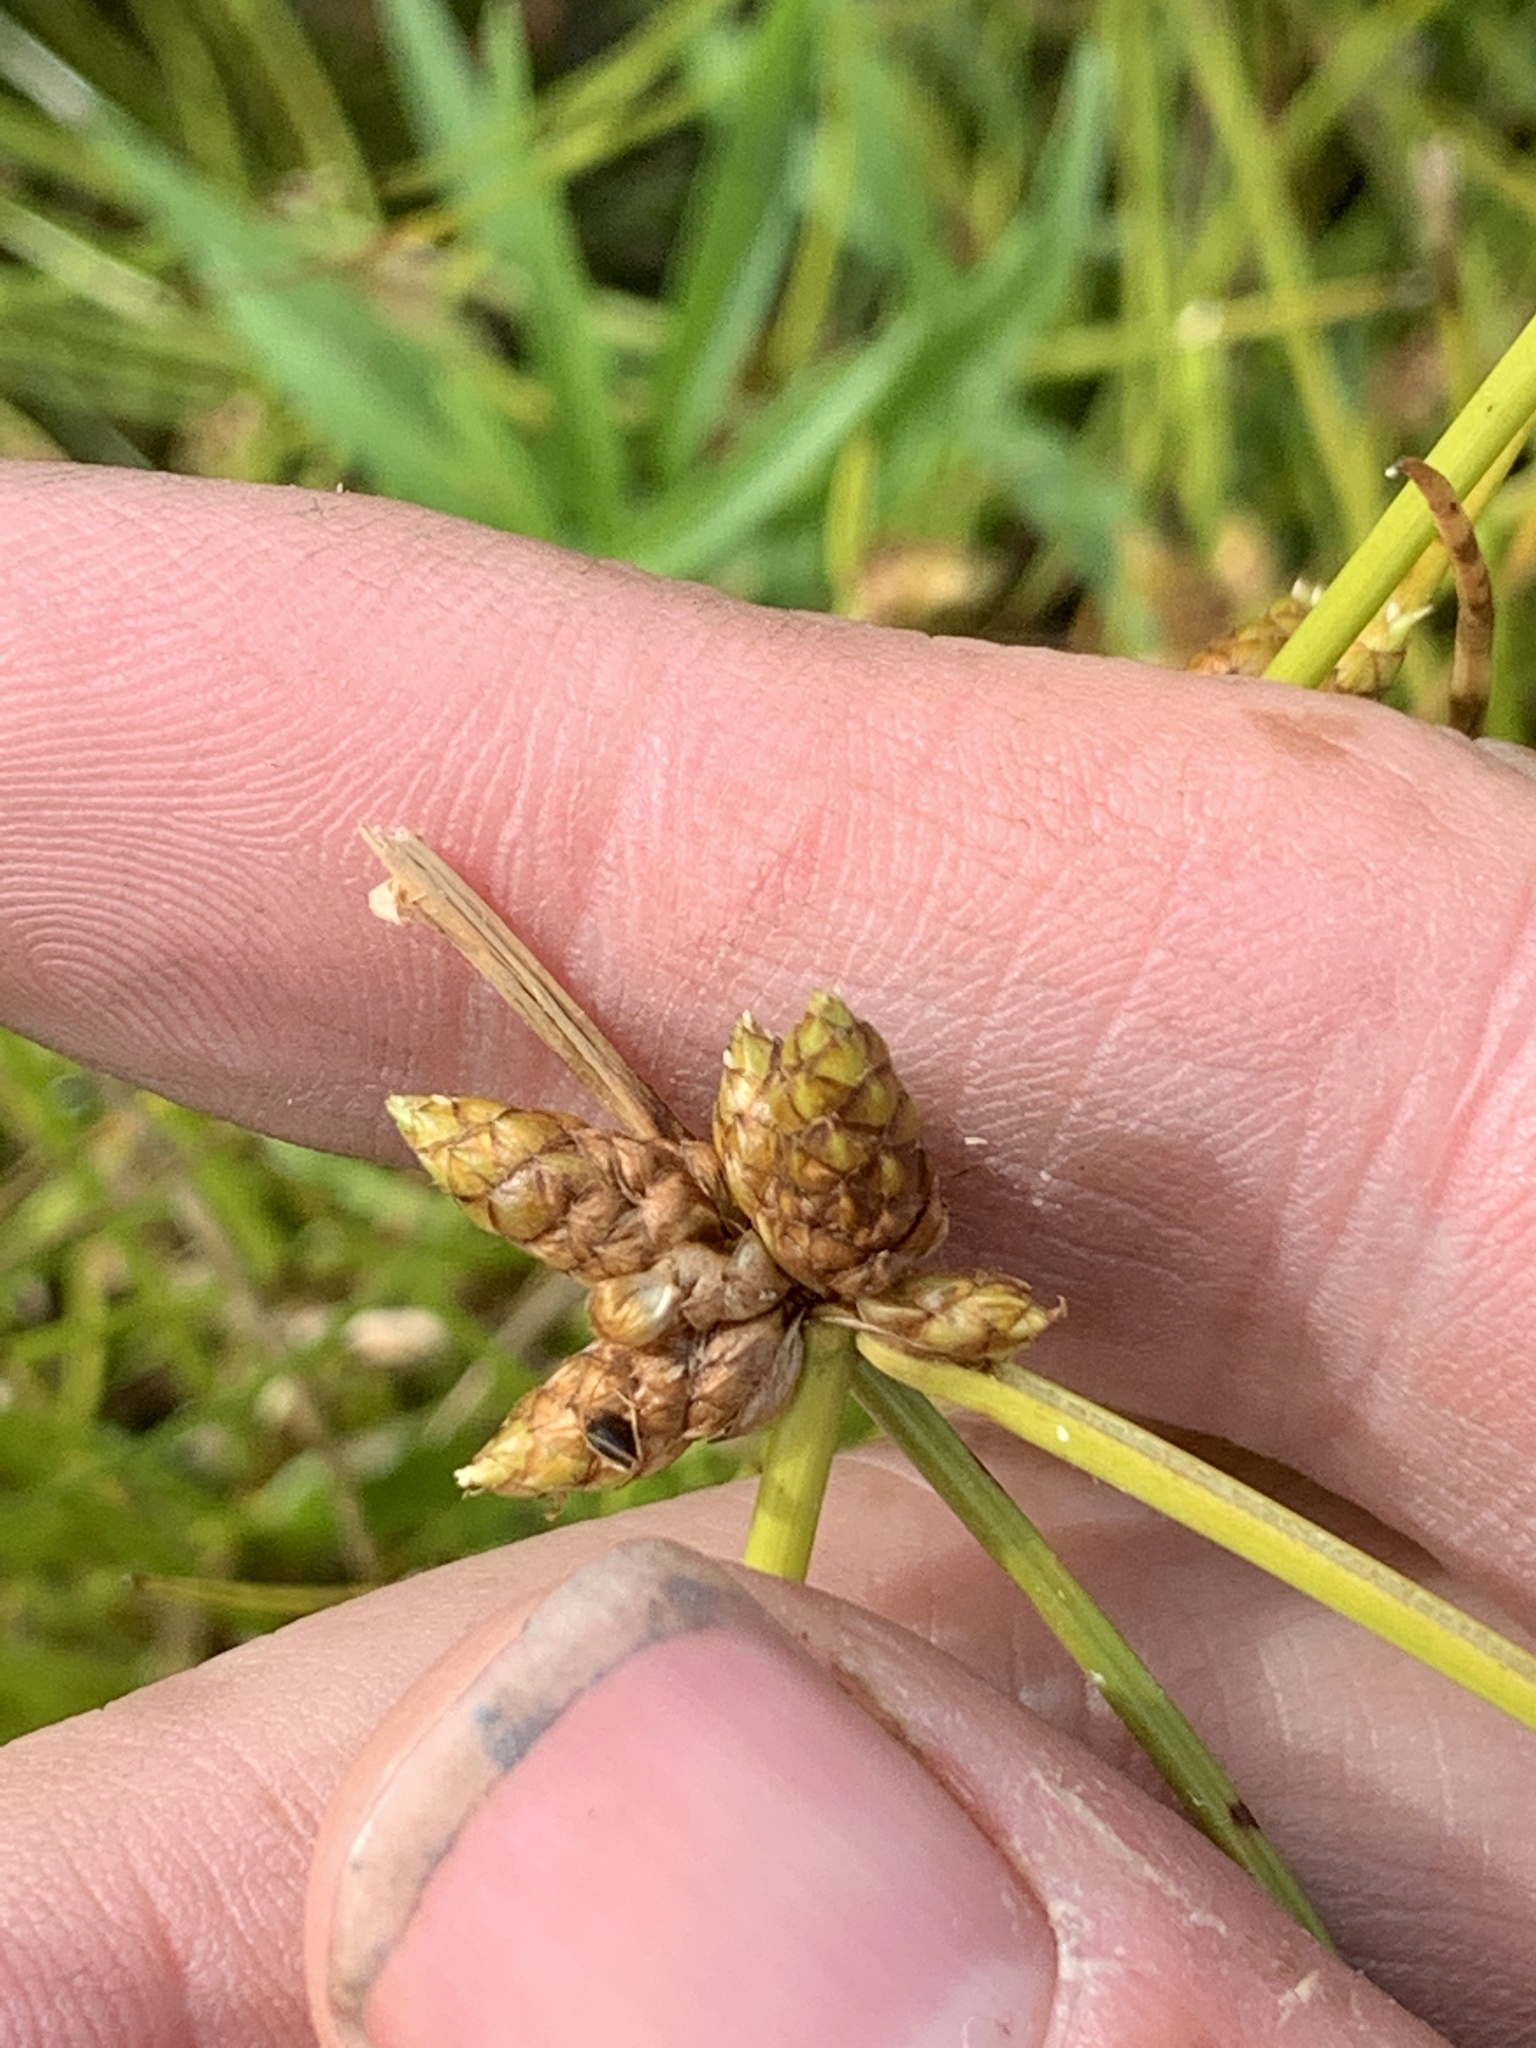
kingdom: Plantae
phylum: Tracheophyta
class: Liliopsida
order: Poales
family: Cyperaceae
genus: Schoenoplectiella
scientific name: Schoenoplectiella purshiana
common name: Weak-stalked bulrush
